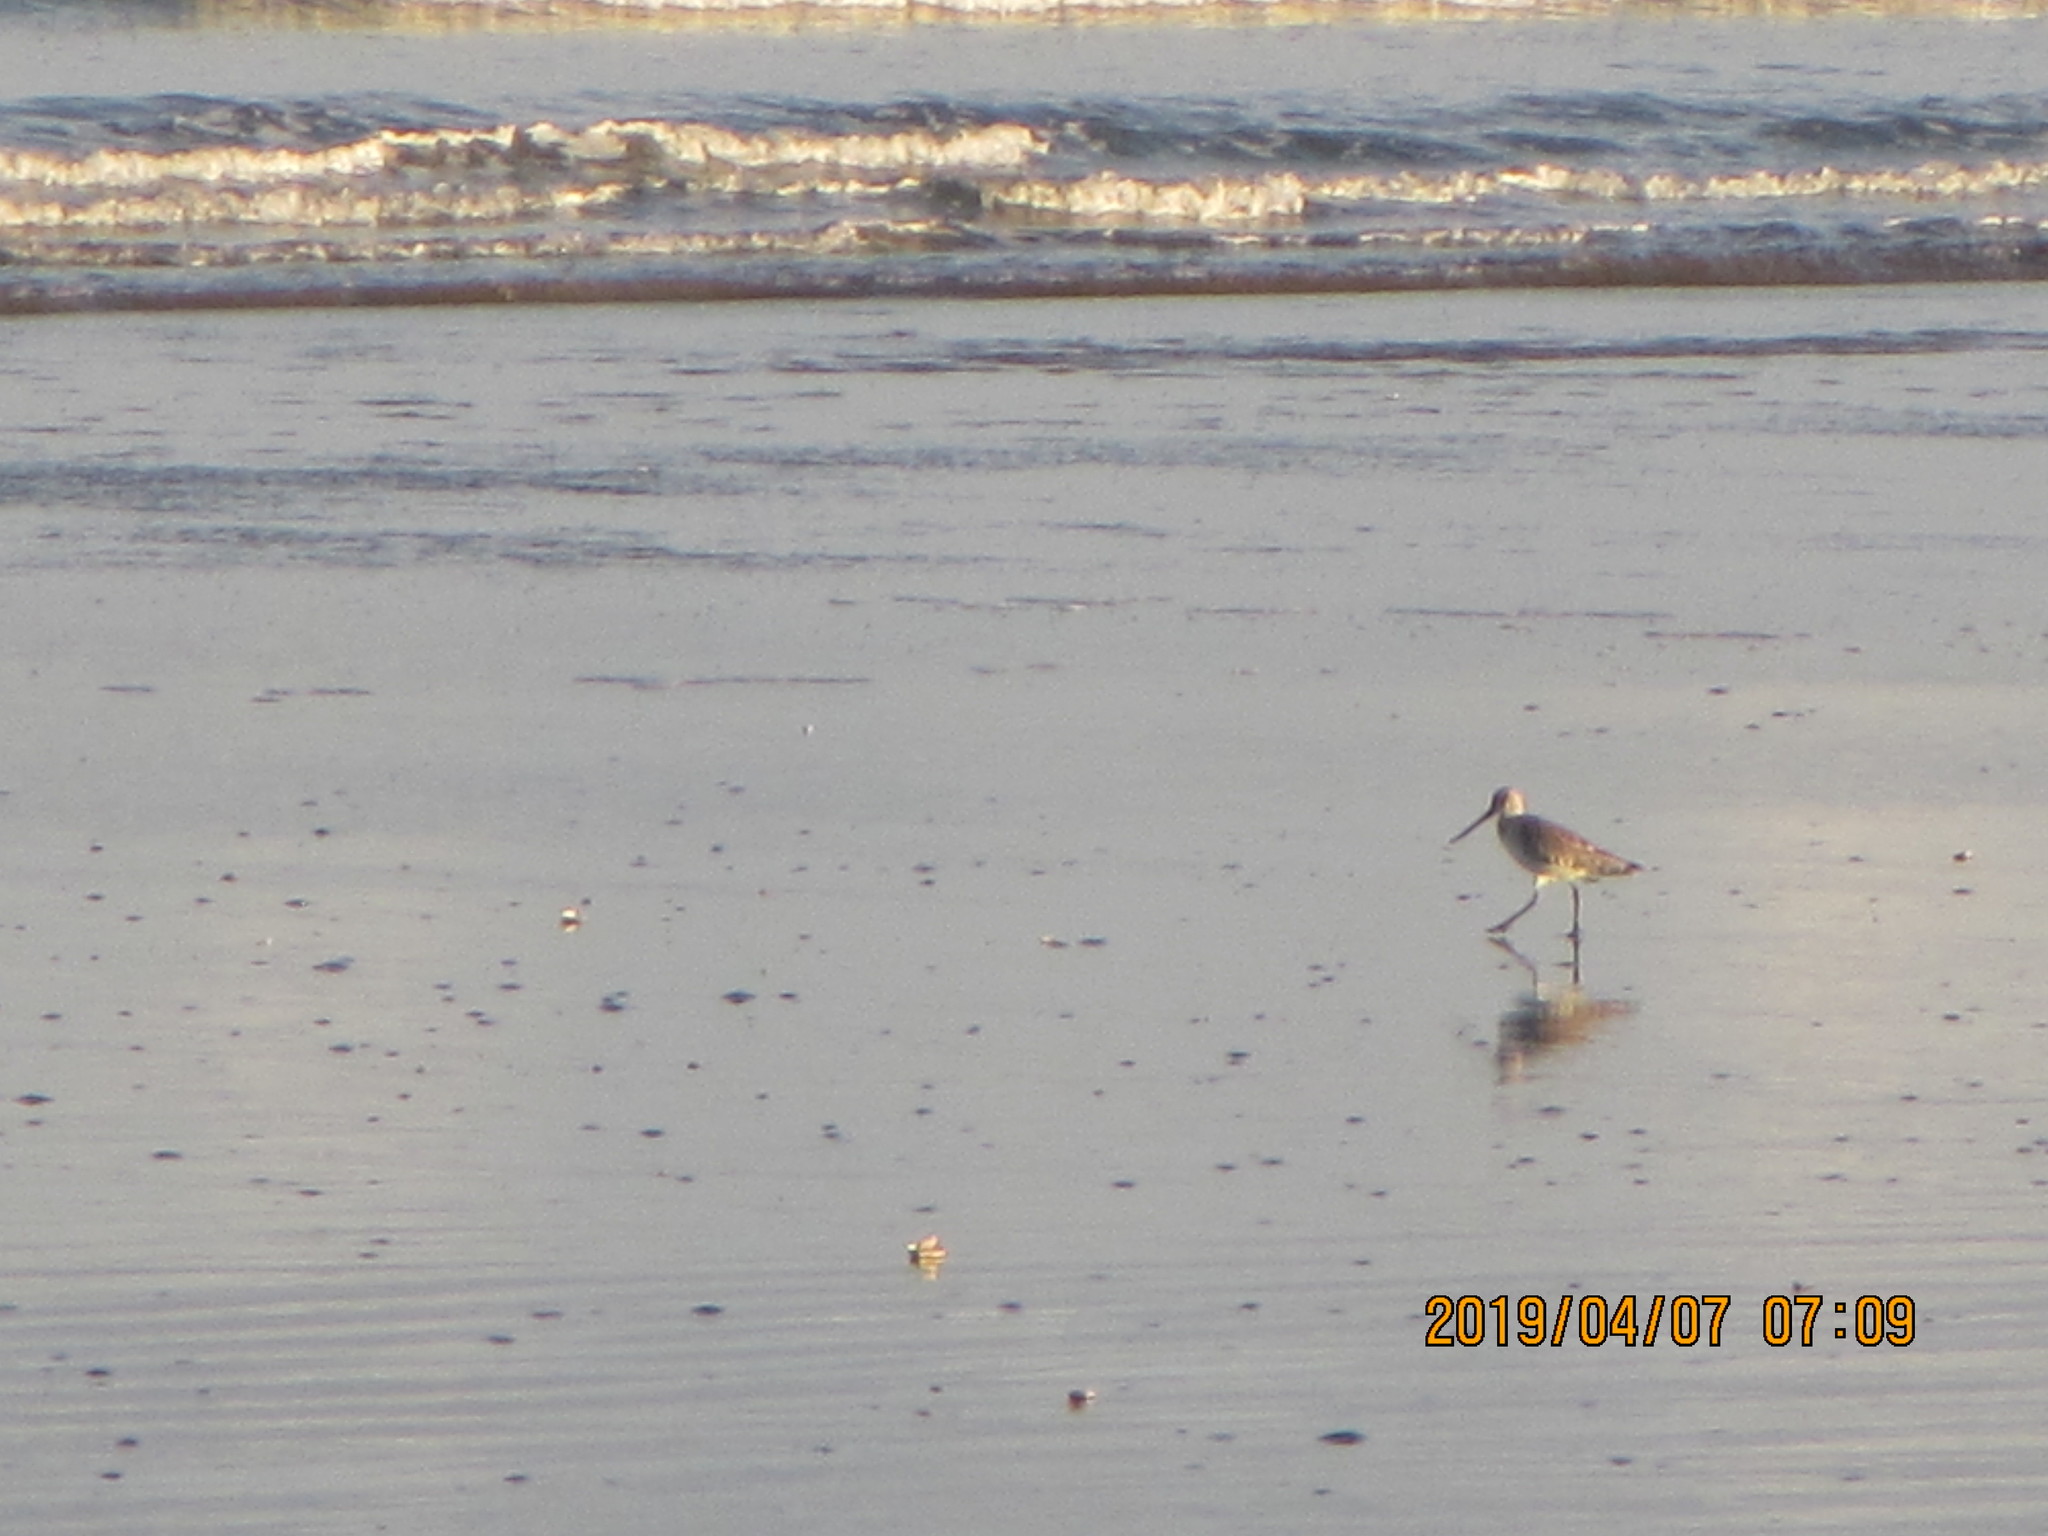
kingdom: Animalia
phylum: Chordata
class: Aves
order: Charadriiformes
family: Scolopacidae
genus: Limosa
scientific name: Limosa lapponica
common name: Bar-tailed godwit
